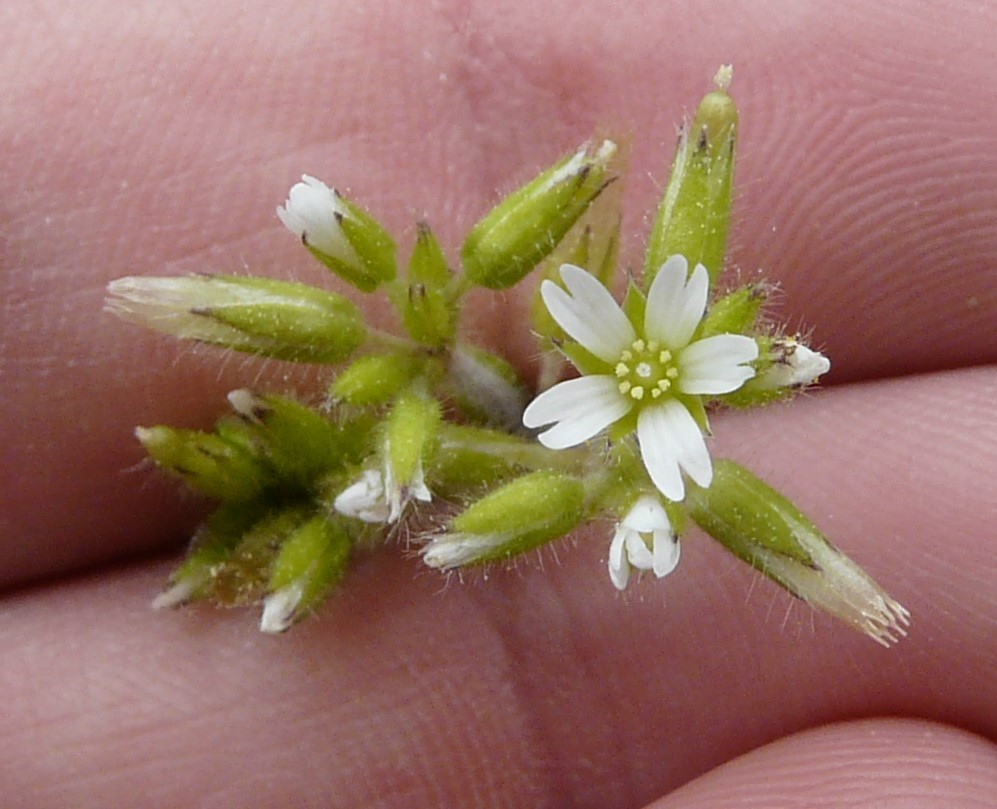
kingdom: Plantae
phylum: Tracheophyta
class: Magnoliopsida
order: Caryophyllales
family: Caryophyllaceae
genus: Cerastium
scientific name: Cerastium glomeratum
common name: Sticky chickweed
